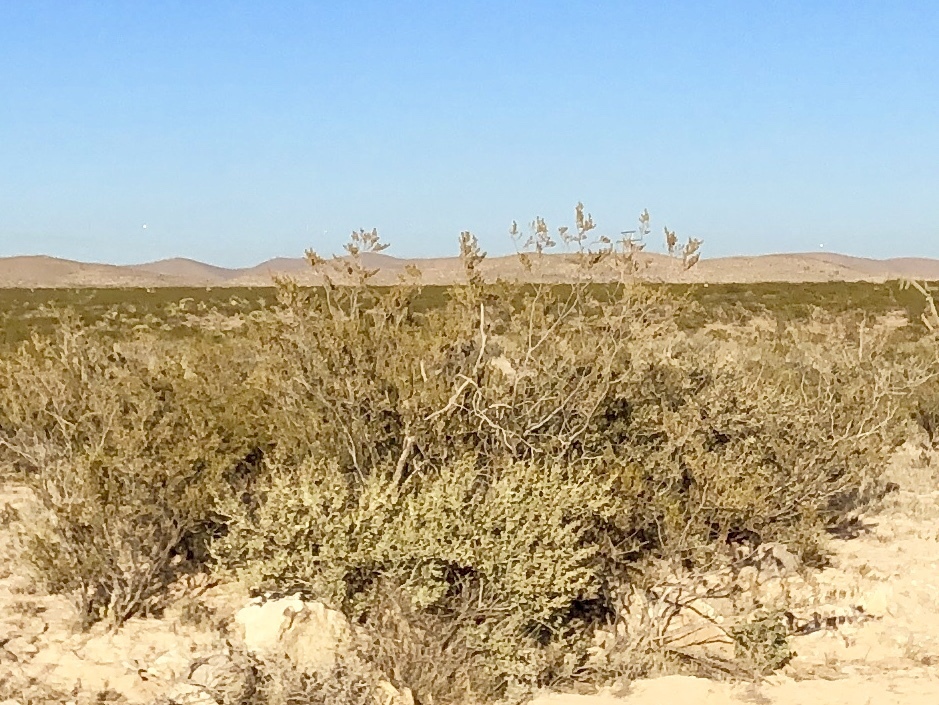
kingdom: Plantae
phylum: Tracheophyta
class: Magnoliopsida
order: Zygophyllales
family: Zygophyllaceae
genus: Larrea
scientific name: Larrea tridentata
